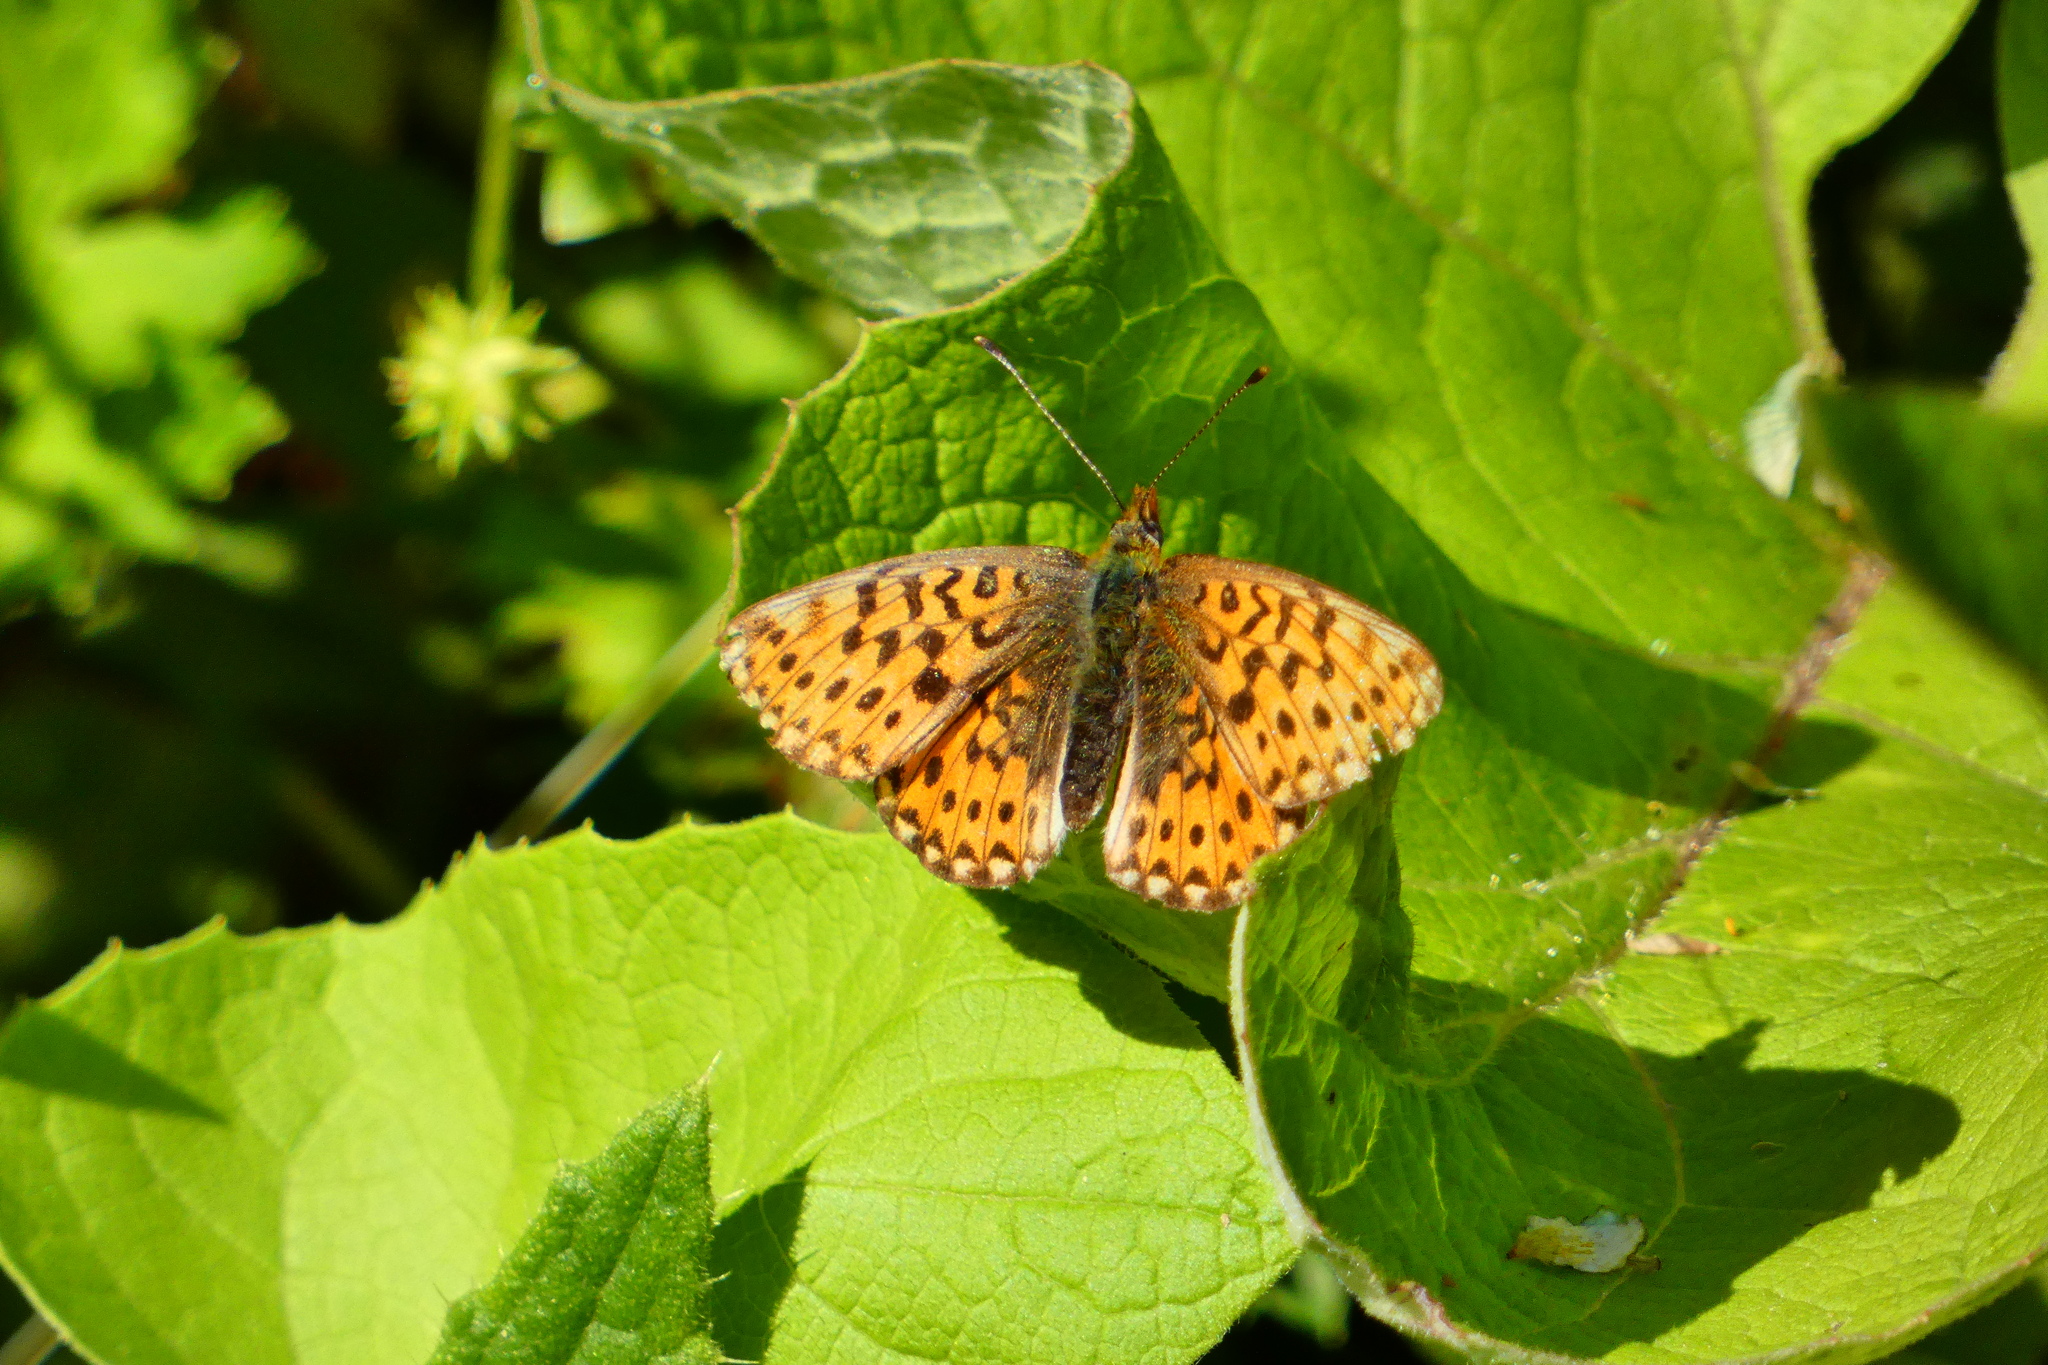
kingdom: Animalia
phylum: Arthropoda
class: Insecta
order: Lepidoptera
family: Nymphalidae
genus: Clossiana
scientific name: Clossiana euphrosyne
